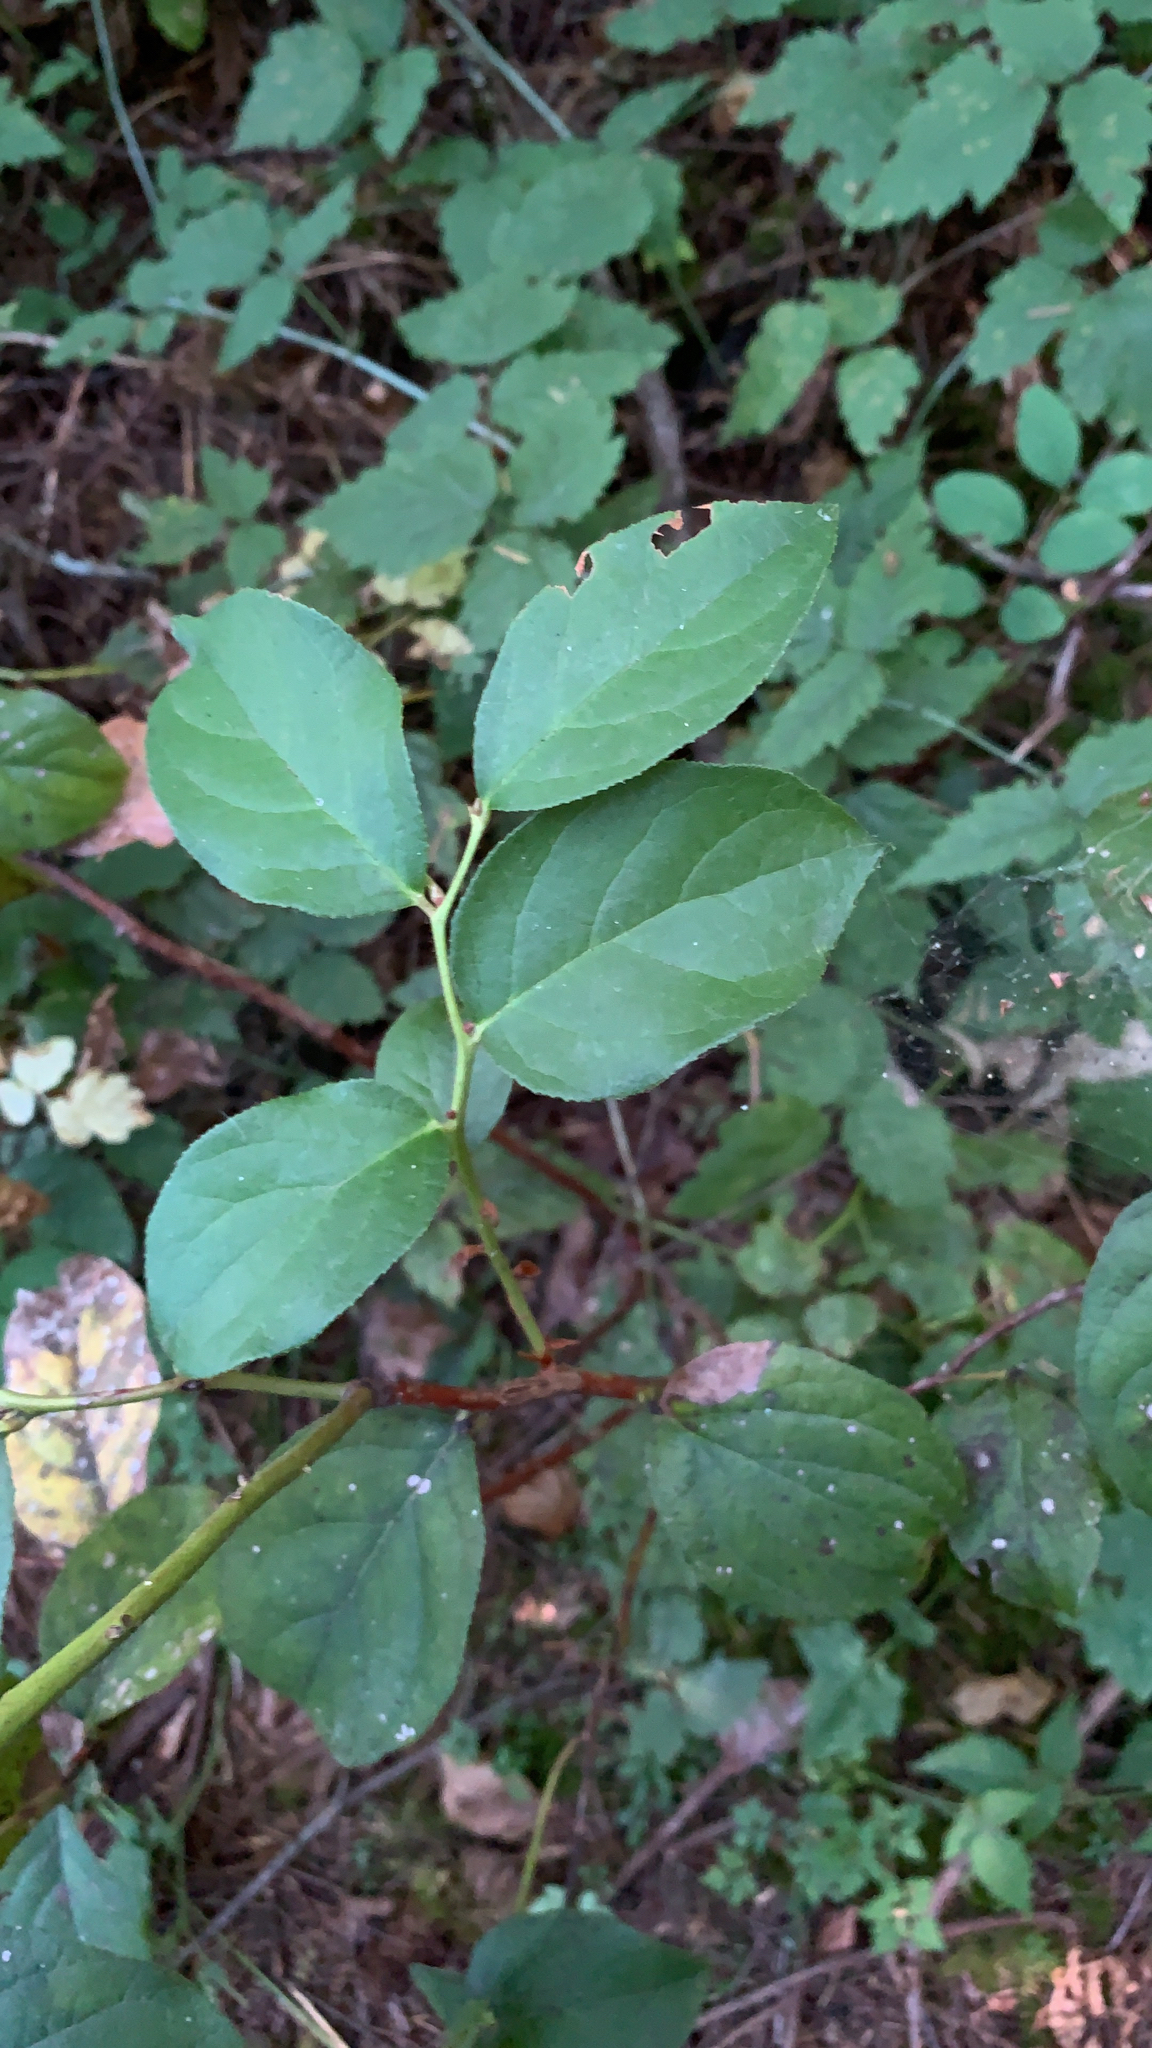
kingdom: Plantae
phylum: Tracheophyta
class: Magnoliopsida
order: Ericales
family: Ericaceae
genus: Gaultheria
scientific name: Gaultheria shallon
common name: Shallon
